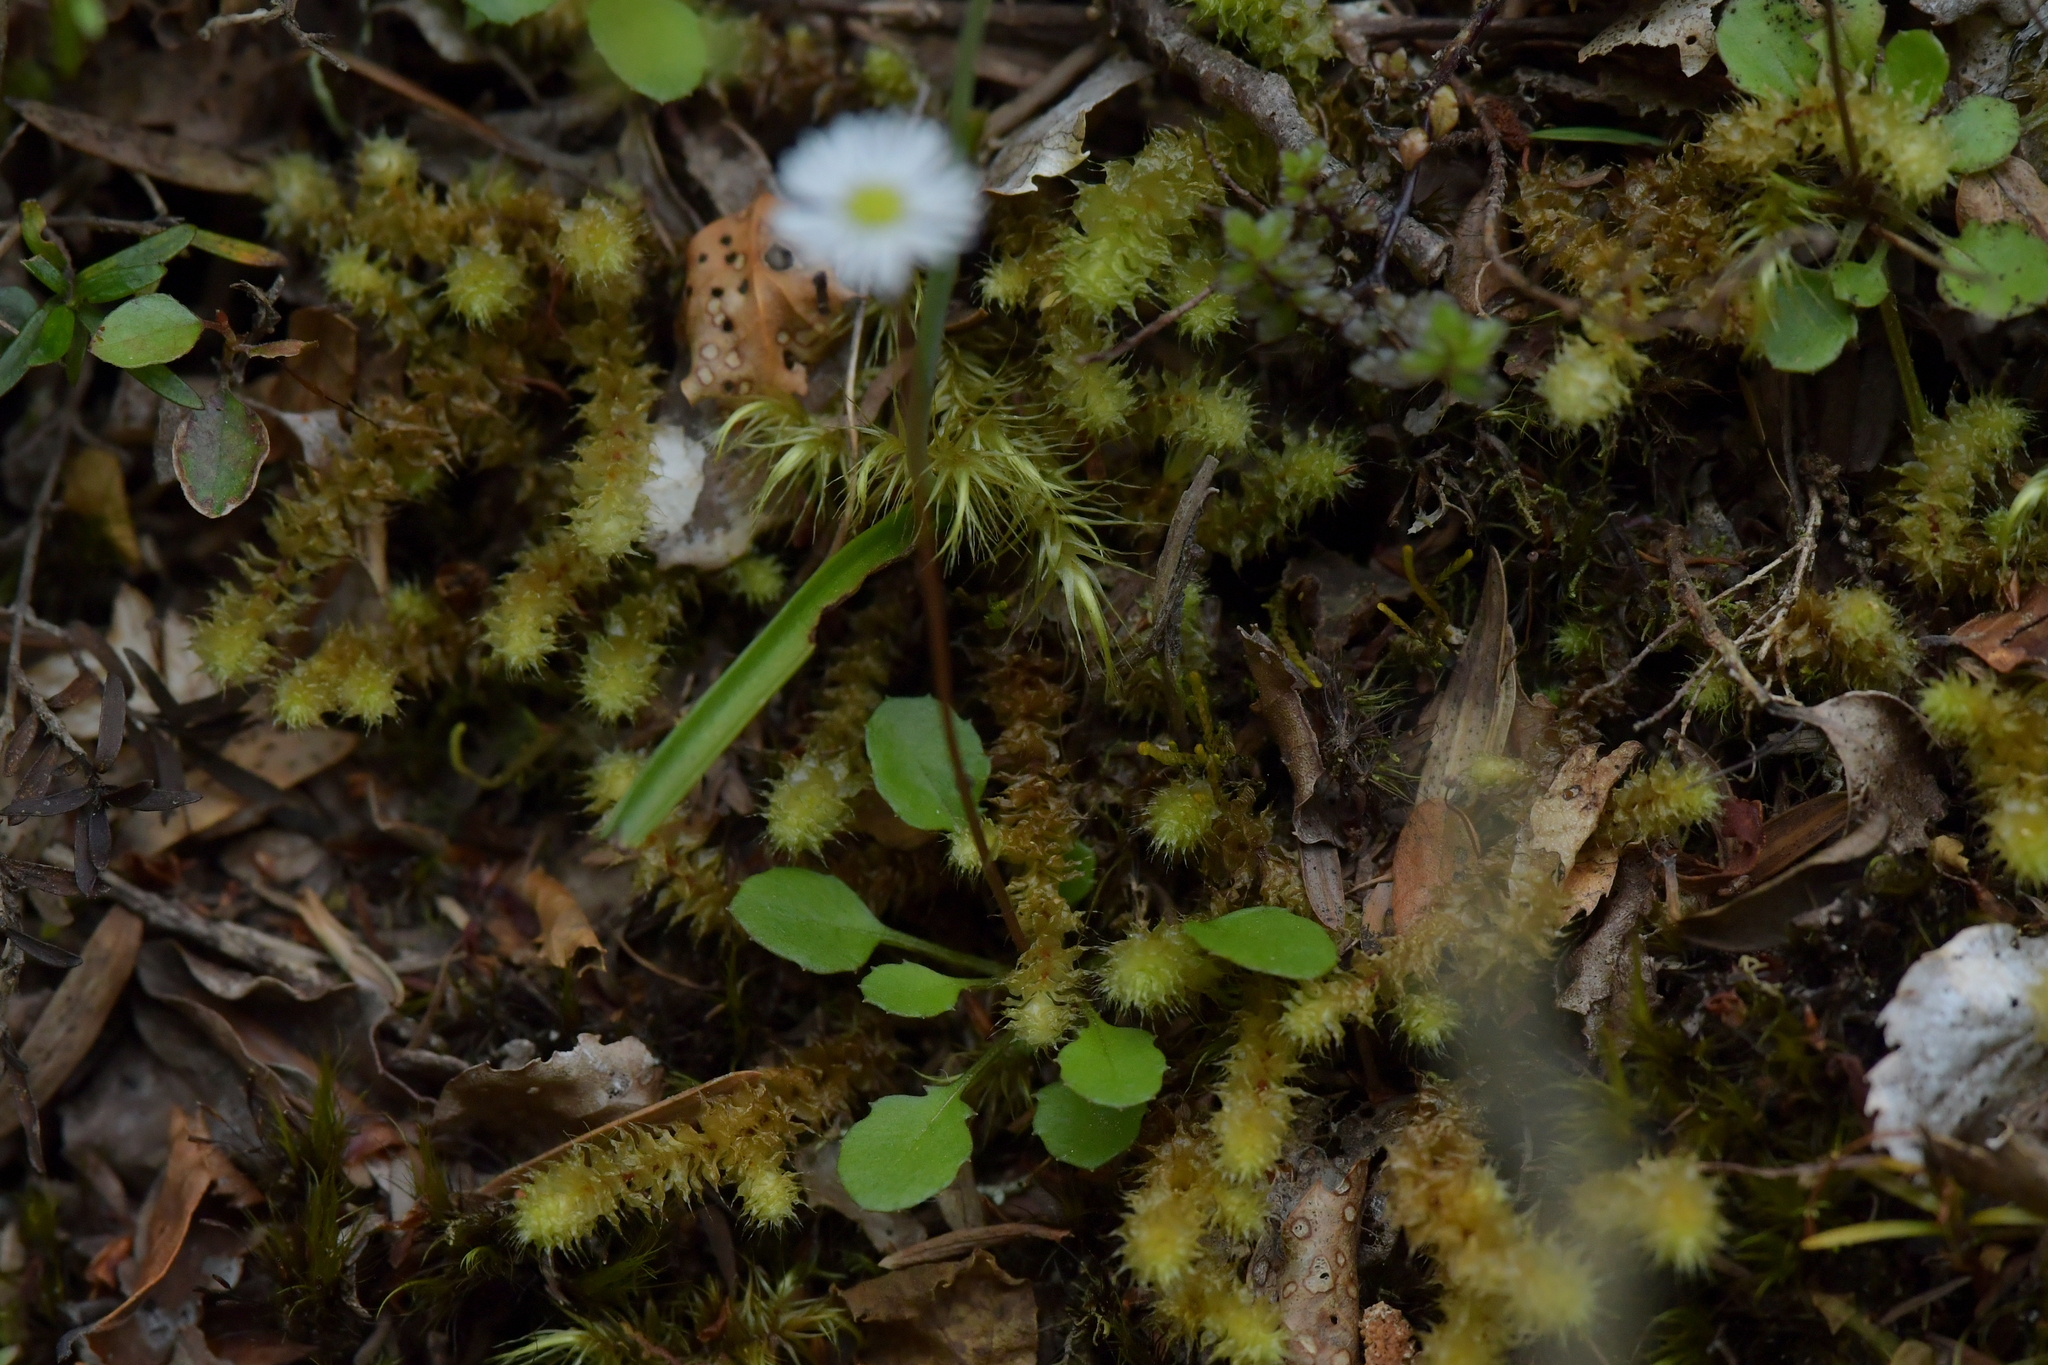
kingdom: Plantae
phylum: Tracheophyta
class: Magnoliopsida
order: Asterales
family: Asteraceae
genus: Lagenophora
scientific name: Lagenophora pumila
